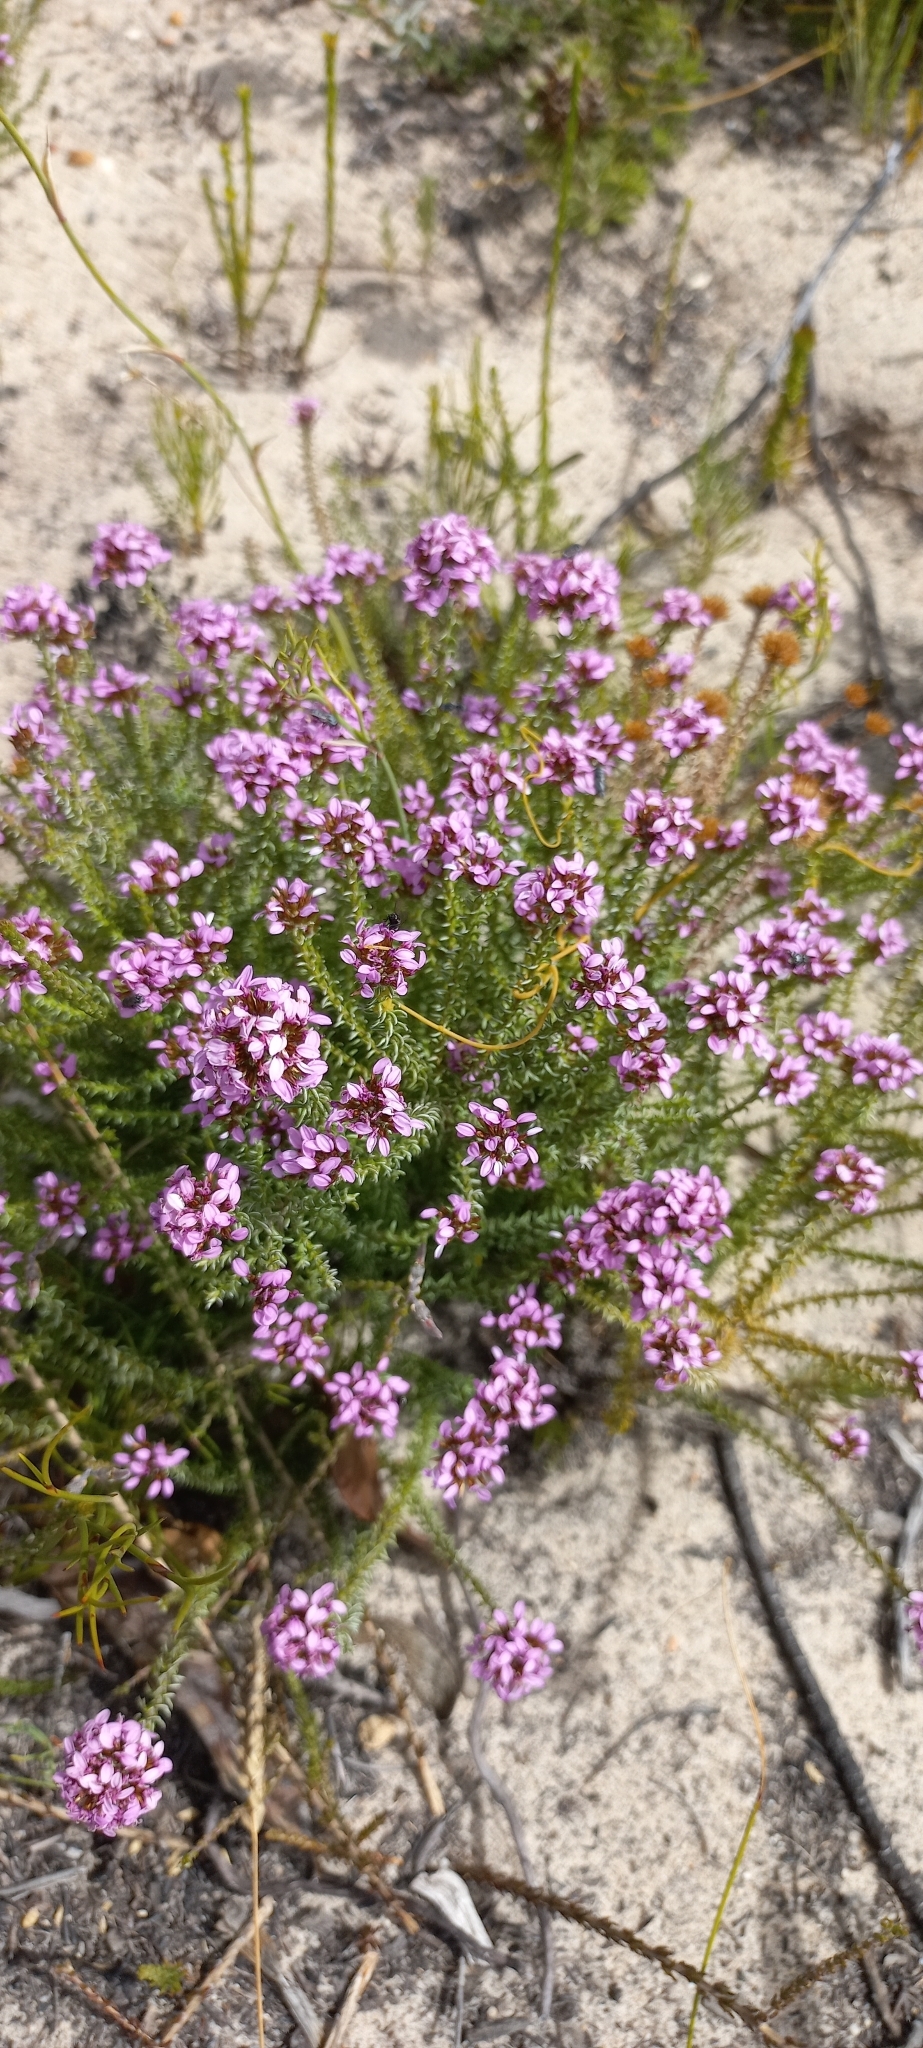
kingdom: Plantae
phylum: Tracheophyta
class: Magnoliopsida
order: Asterales
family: Asteraceae
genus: Disparago
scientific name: Disparago ericoides
